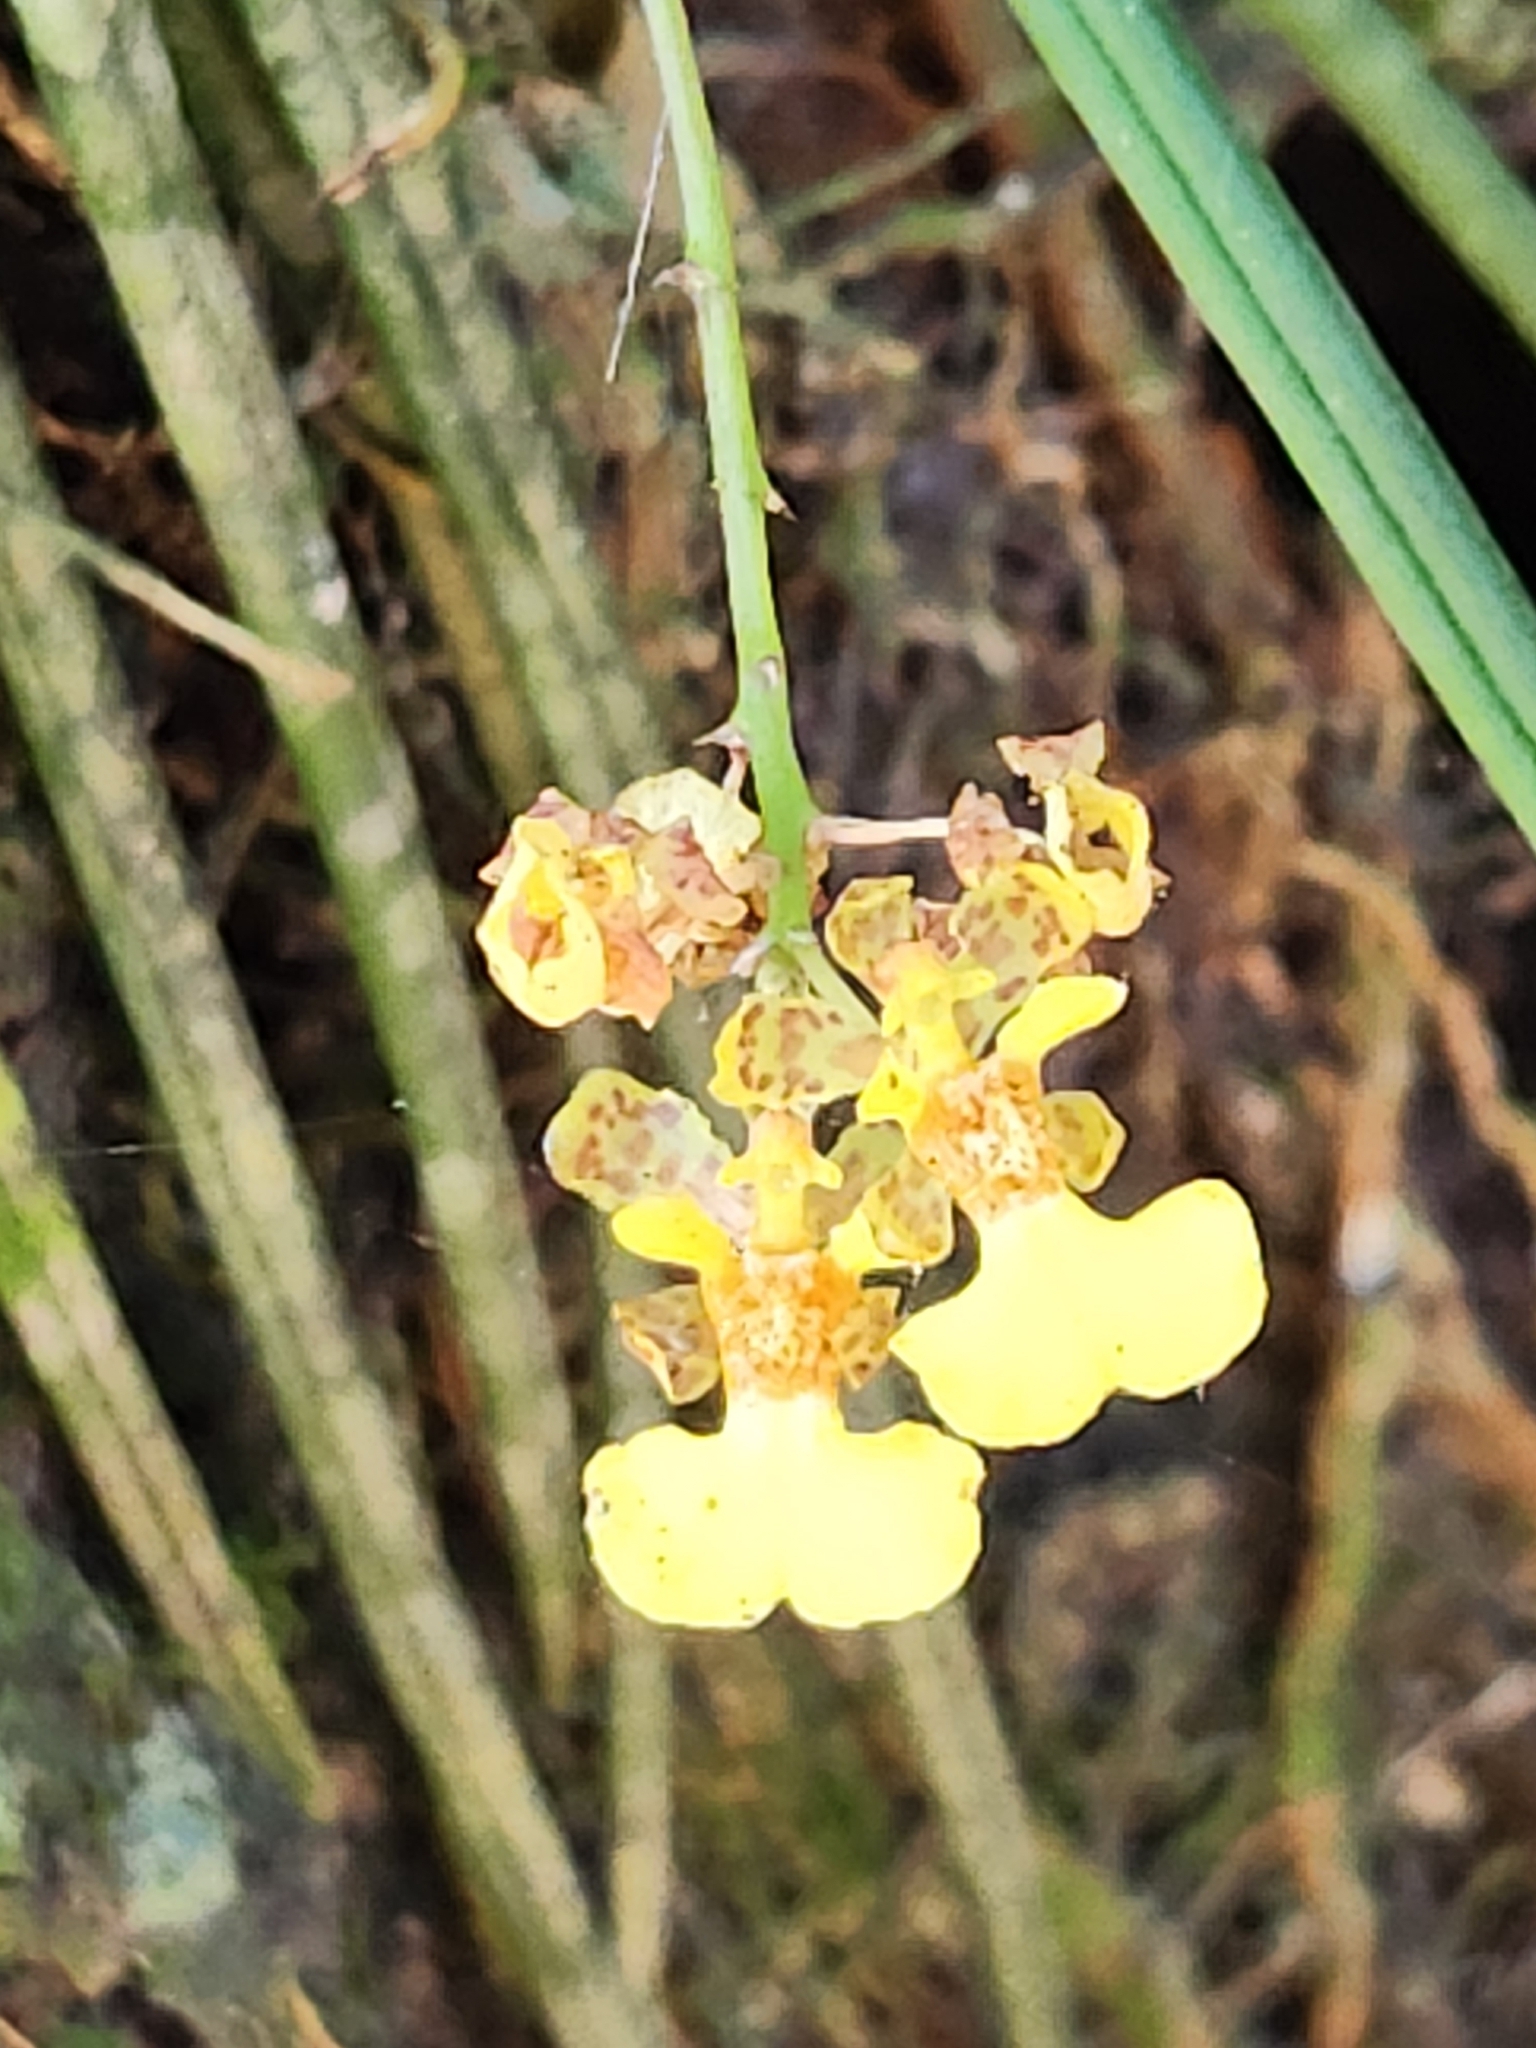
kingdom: Plantae
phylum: Tracheophyta
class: Liliopsida
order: Asparagales
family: Orchidaceae
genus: Trichocentrum
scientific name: Trichocentrum ascendens
